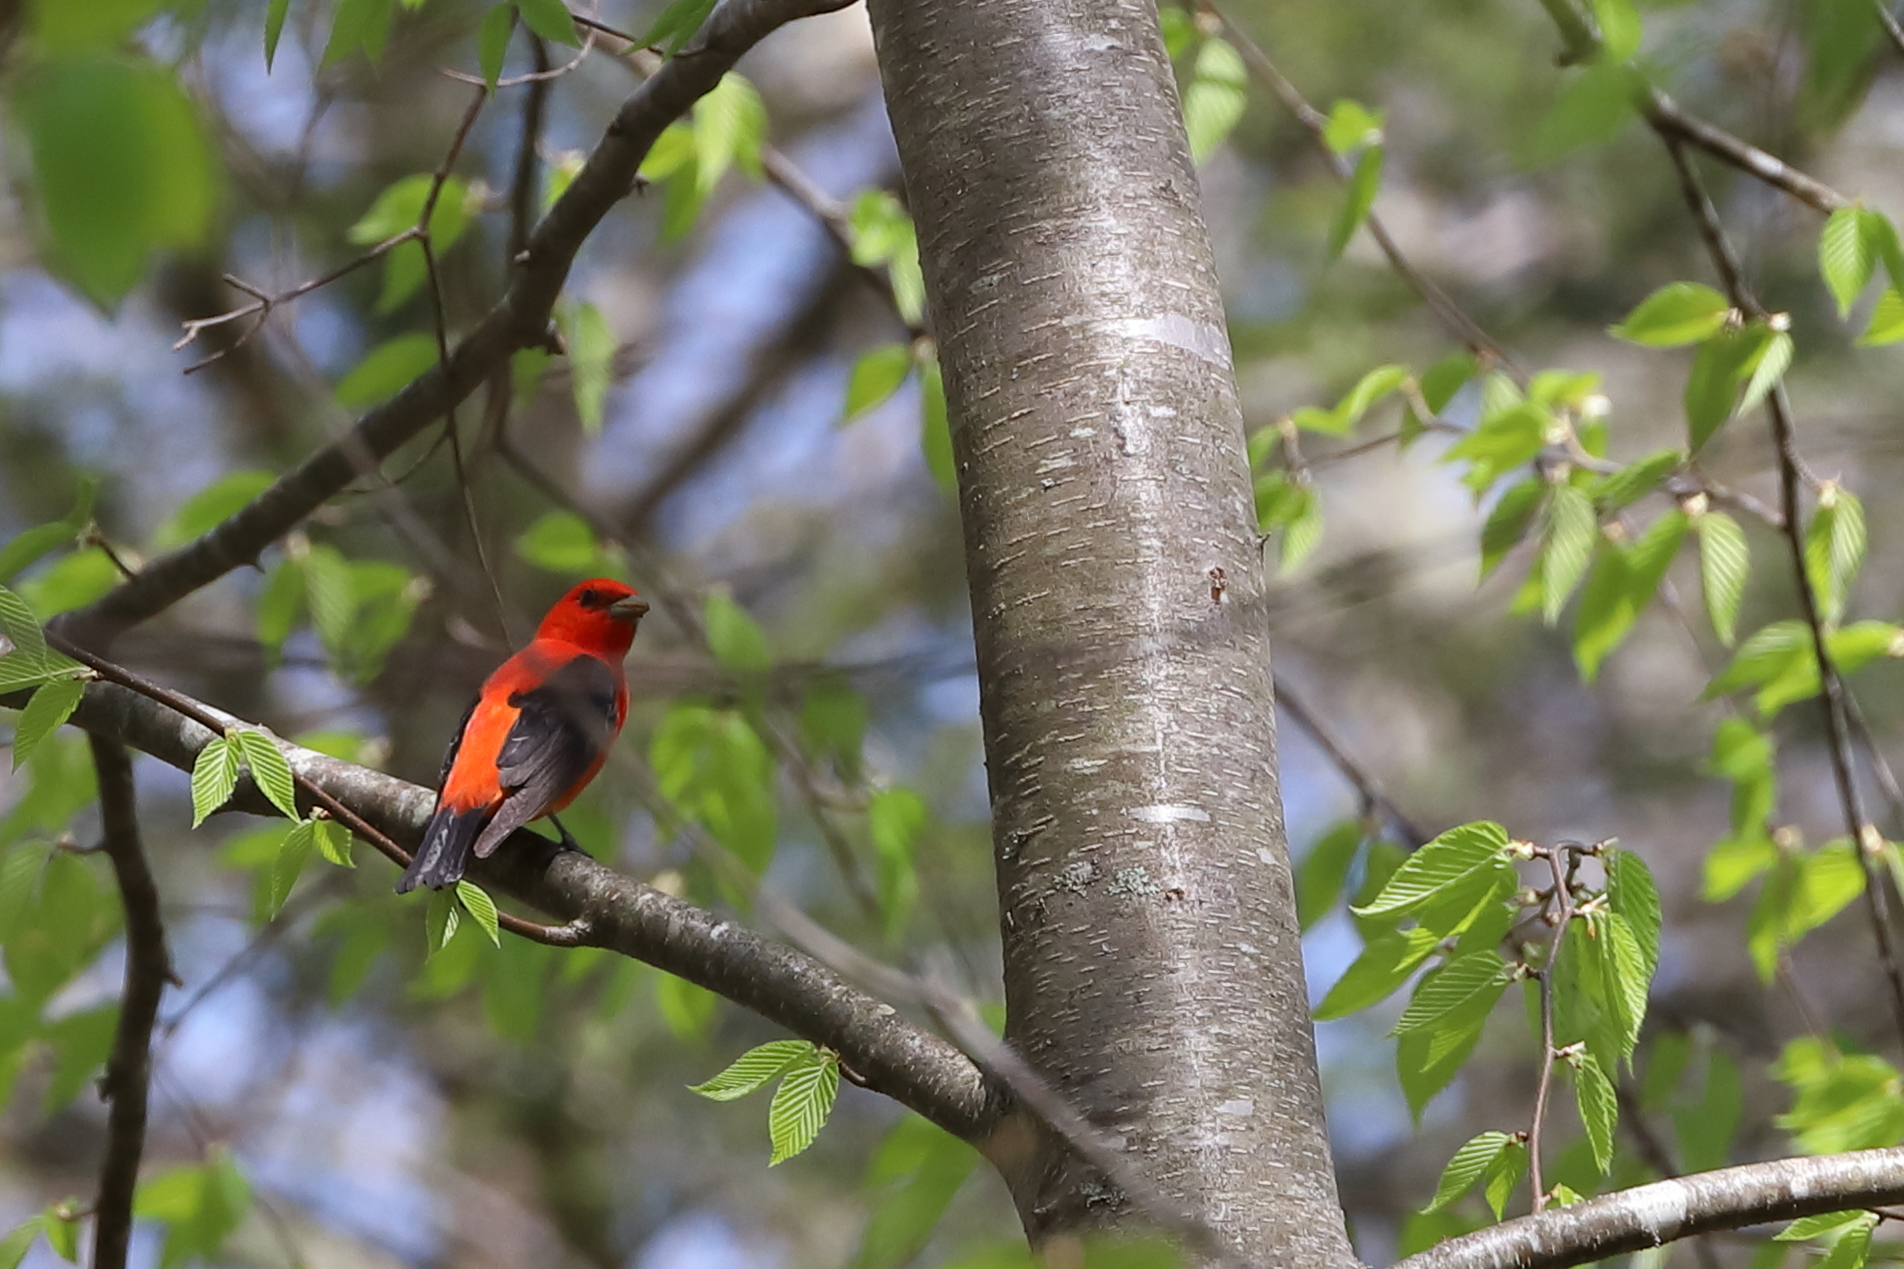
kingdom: Animalia
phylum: Chordata
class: Aves
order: Passeriformes
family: Cardinalidae
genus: Piranga
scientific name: Piranga olivacea
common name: Scarlet tanager
